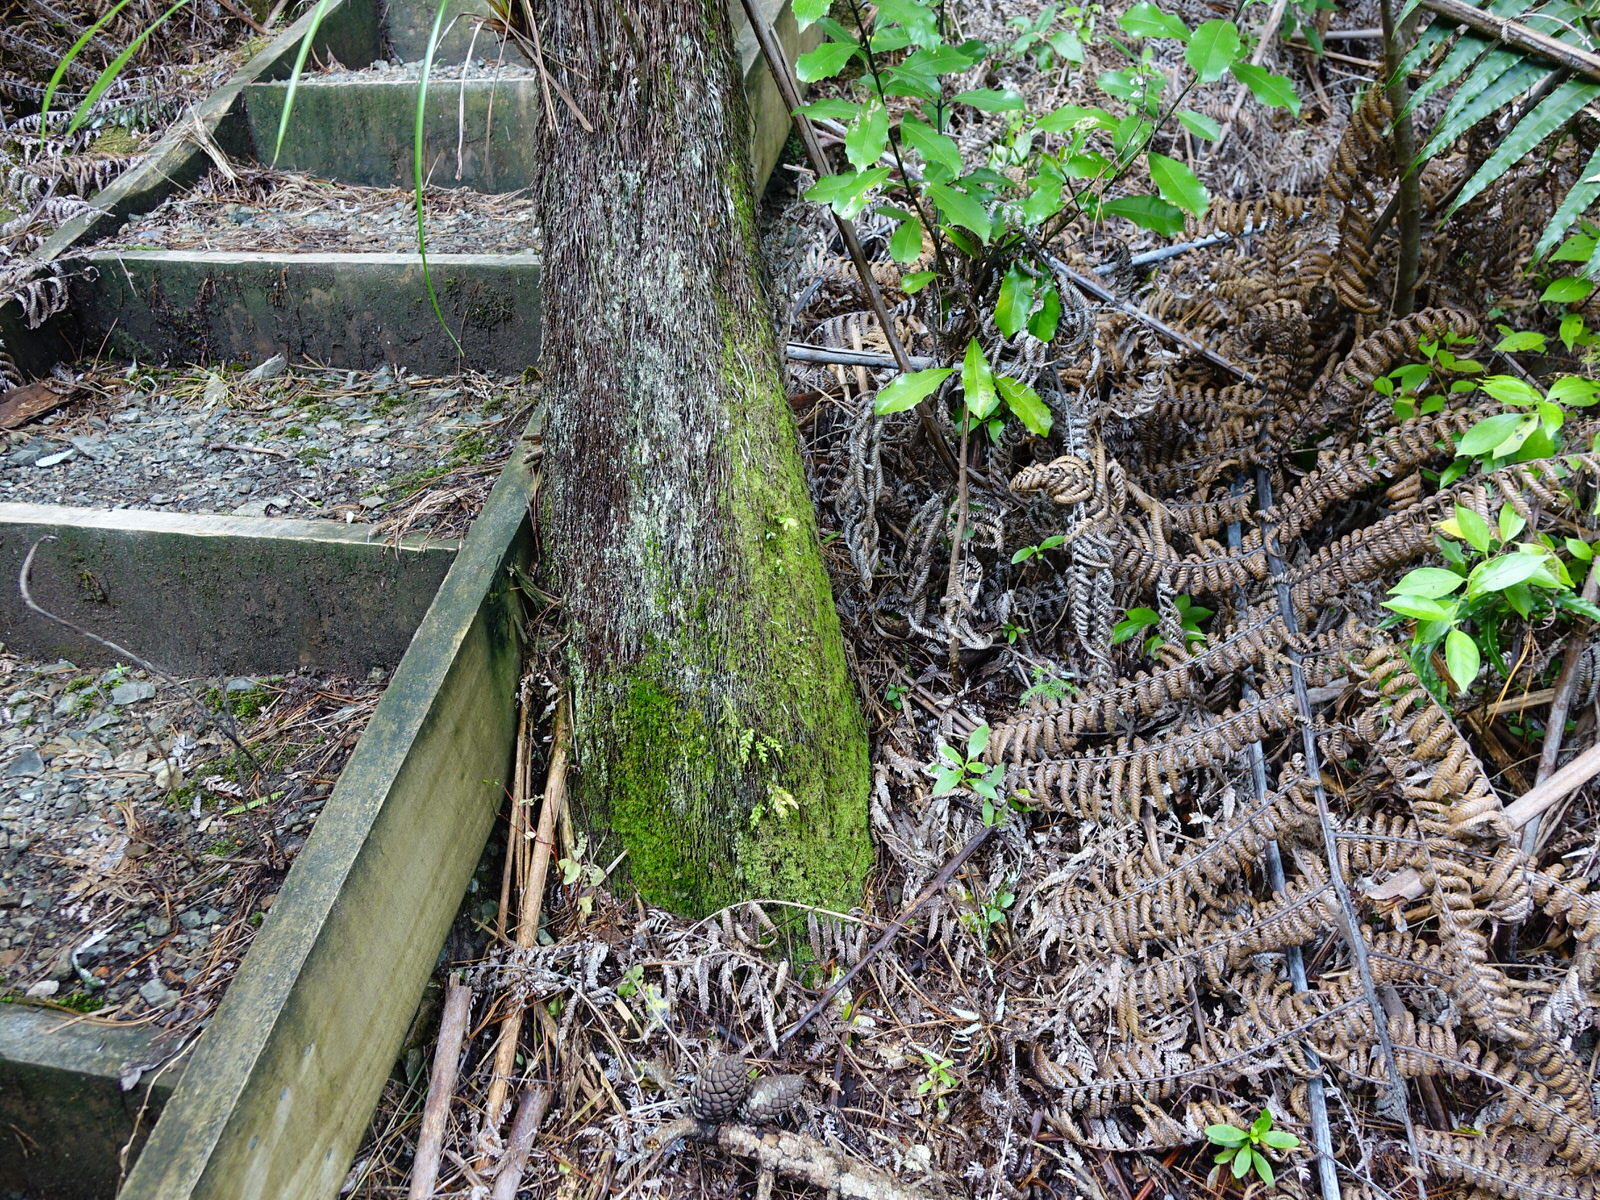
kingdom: Plantae
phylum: Tracheophyta
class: Polypodiopsida
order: Psilotales
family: Psilotaceae
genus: Tmesipteris
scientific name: Tmesipteris lanceolata
